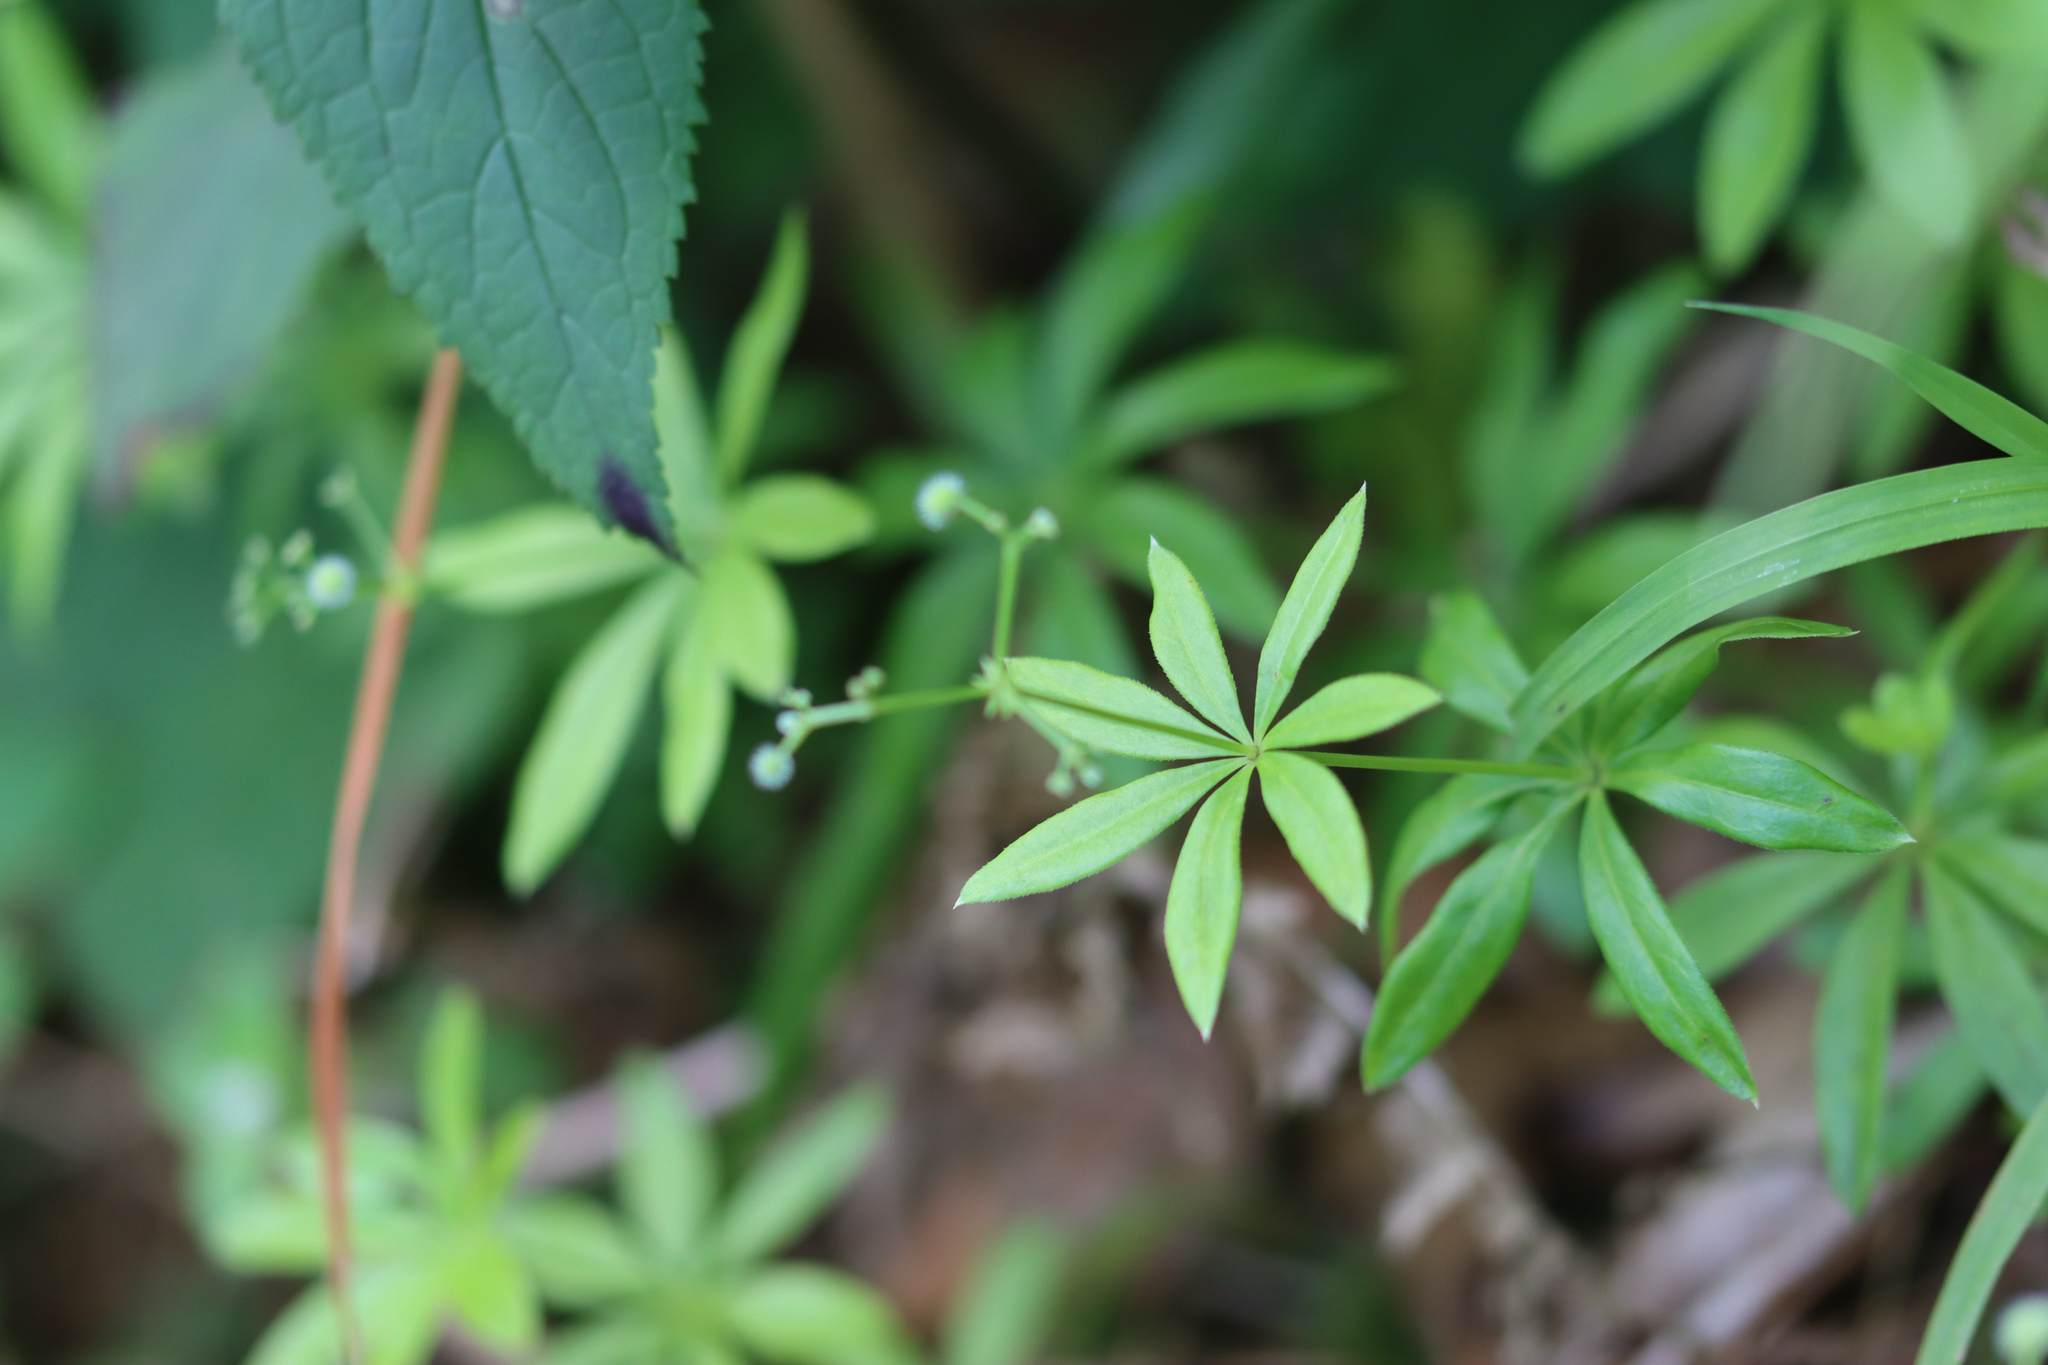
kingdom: Plantae
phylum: Tracheophyta
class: Magnoliopsida
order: Gentianales
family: Rubiaceae
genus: Galium
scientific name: Galium odoratum
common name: Sweet woodruff
